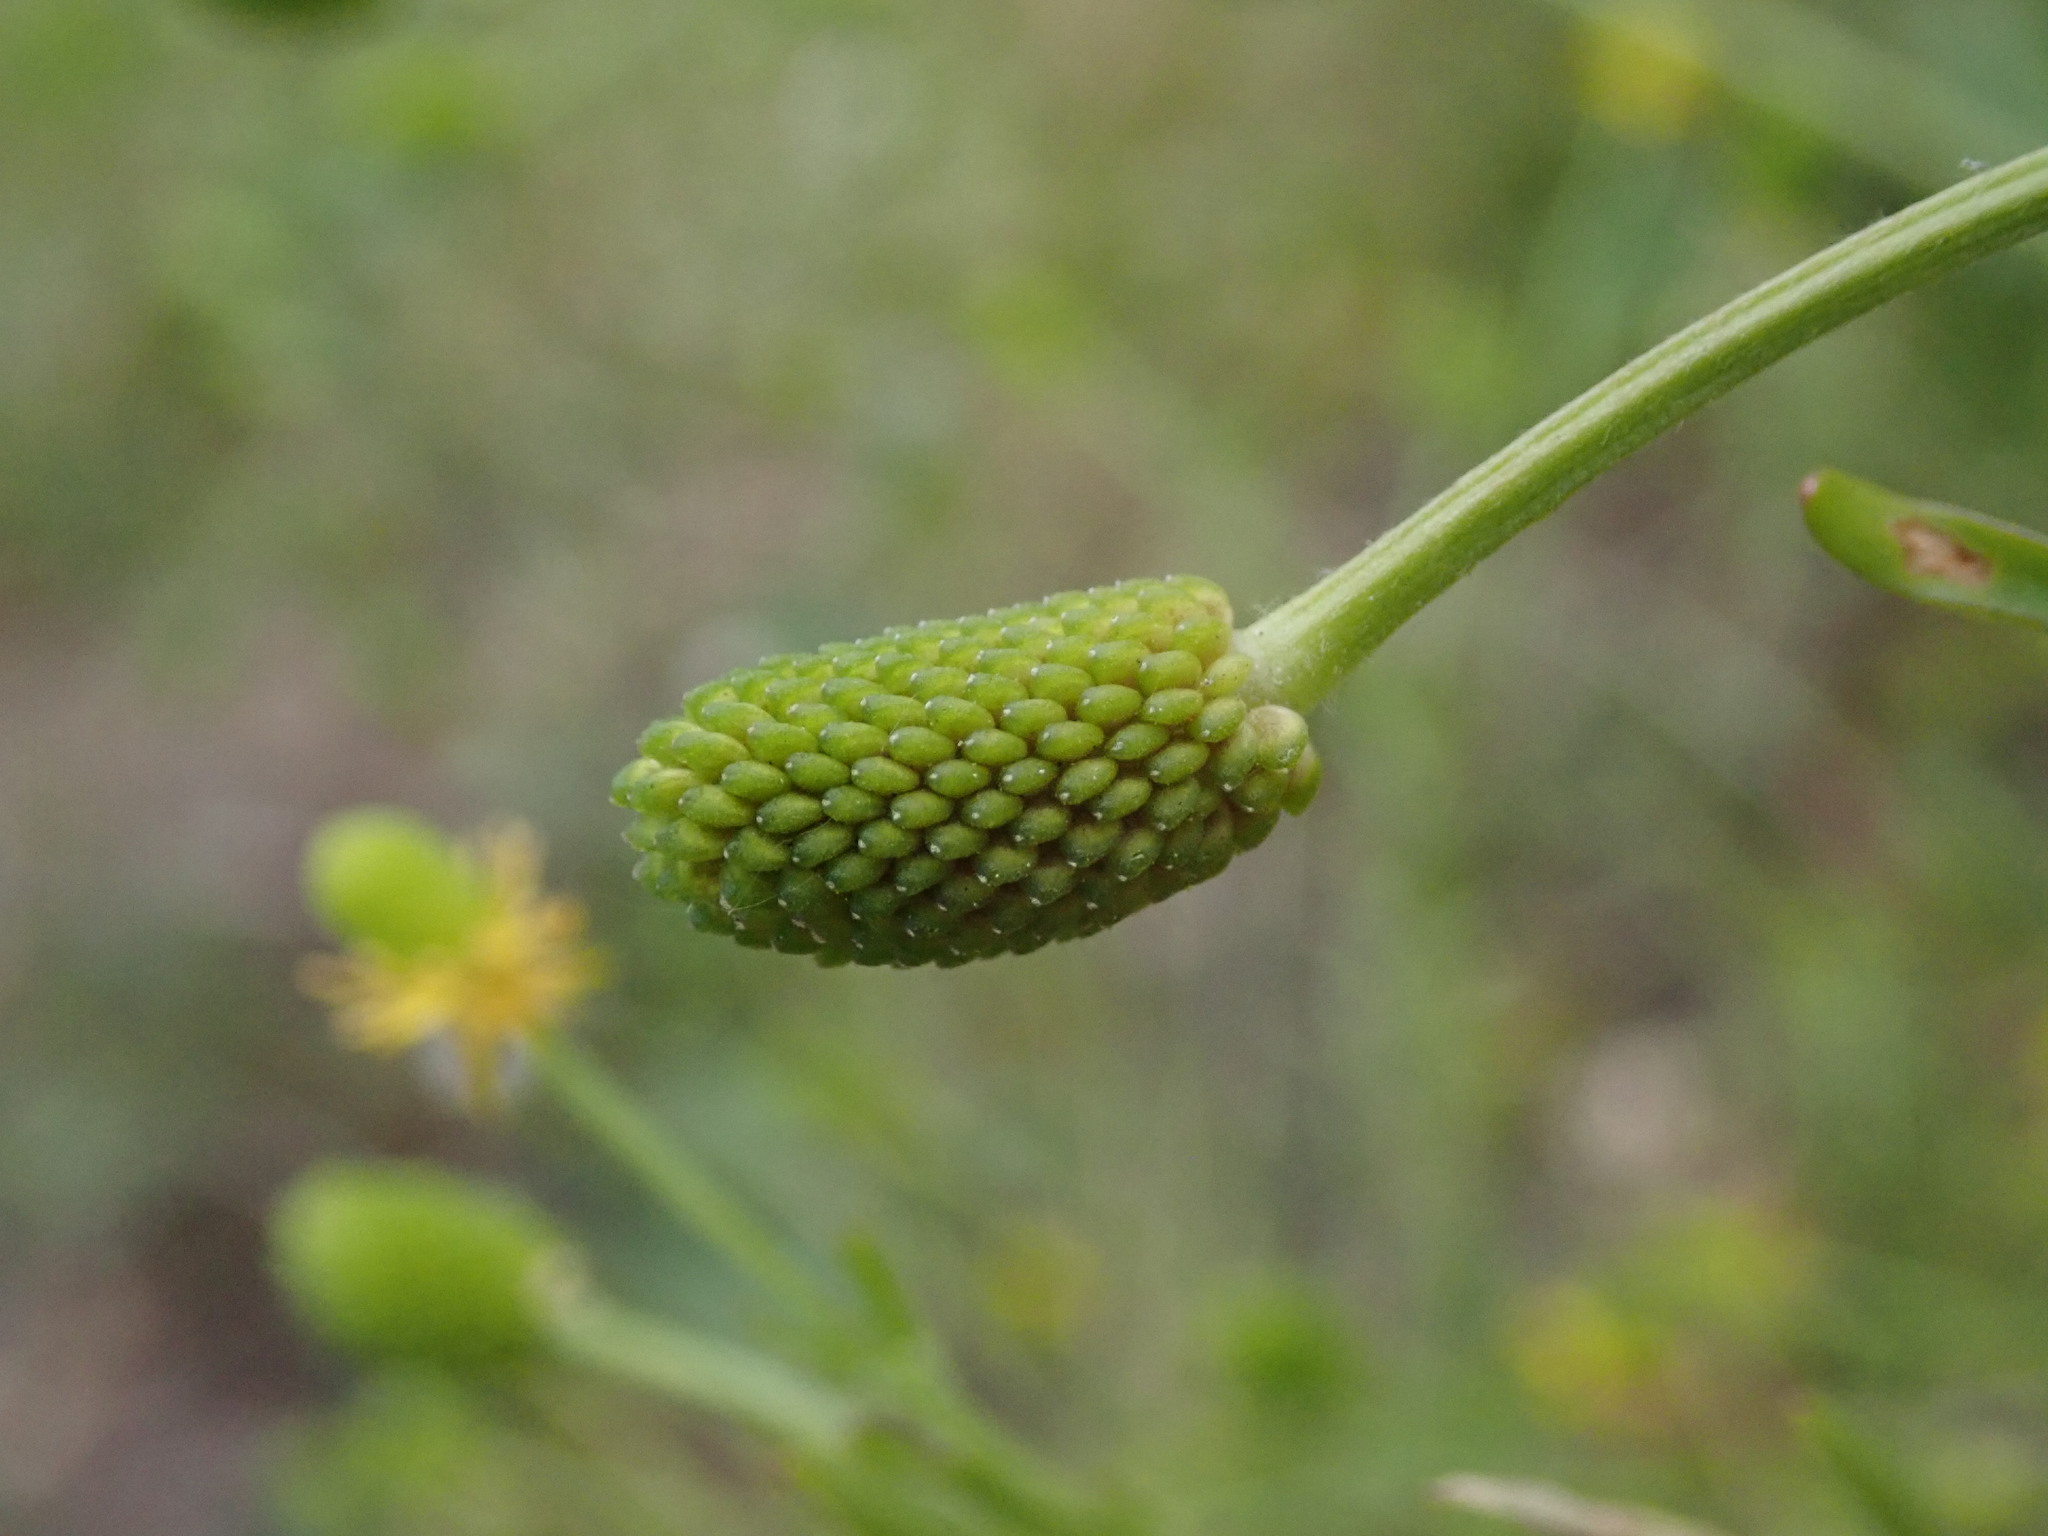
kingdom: Plantae
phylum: Tracheophyta
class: Magnoliopsida
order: Ranunculales
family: Ranunculaceae
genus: Ranunculus
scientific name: Ranunculus sceleratus
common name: Celery-leaved buttercup
